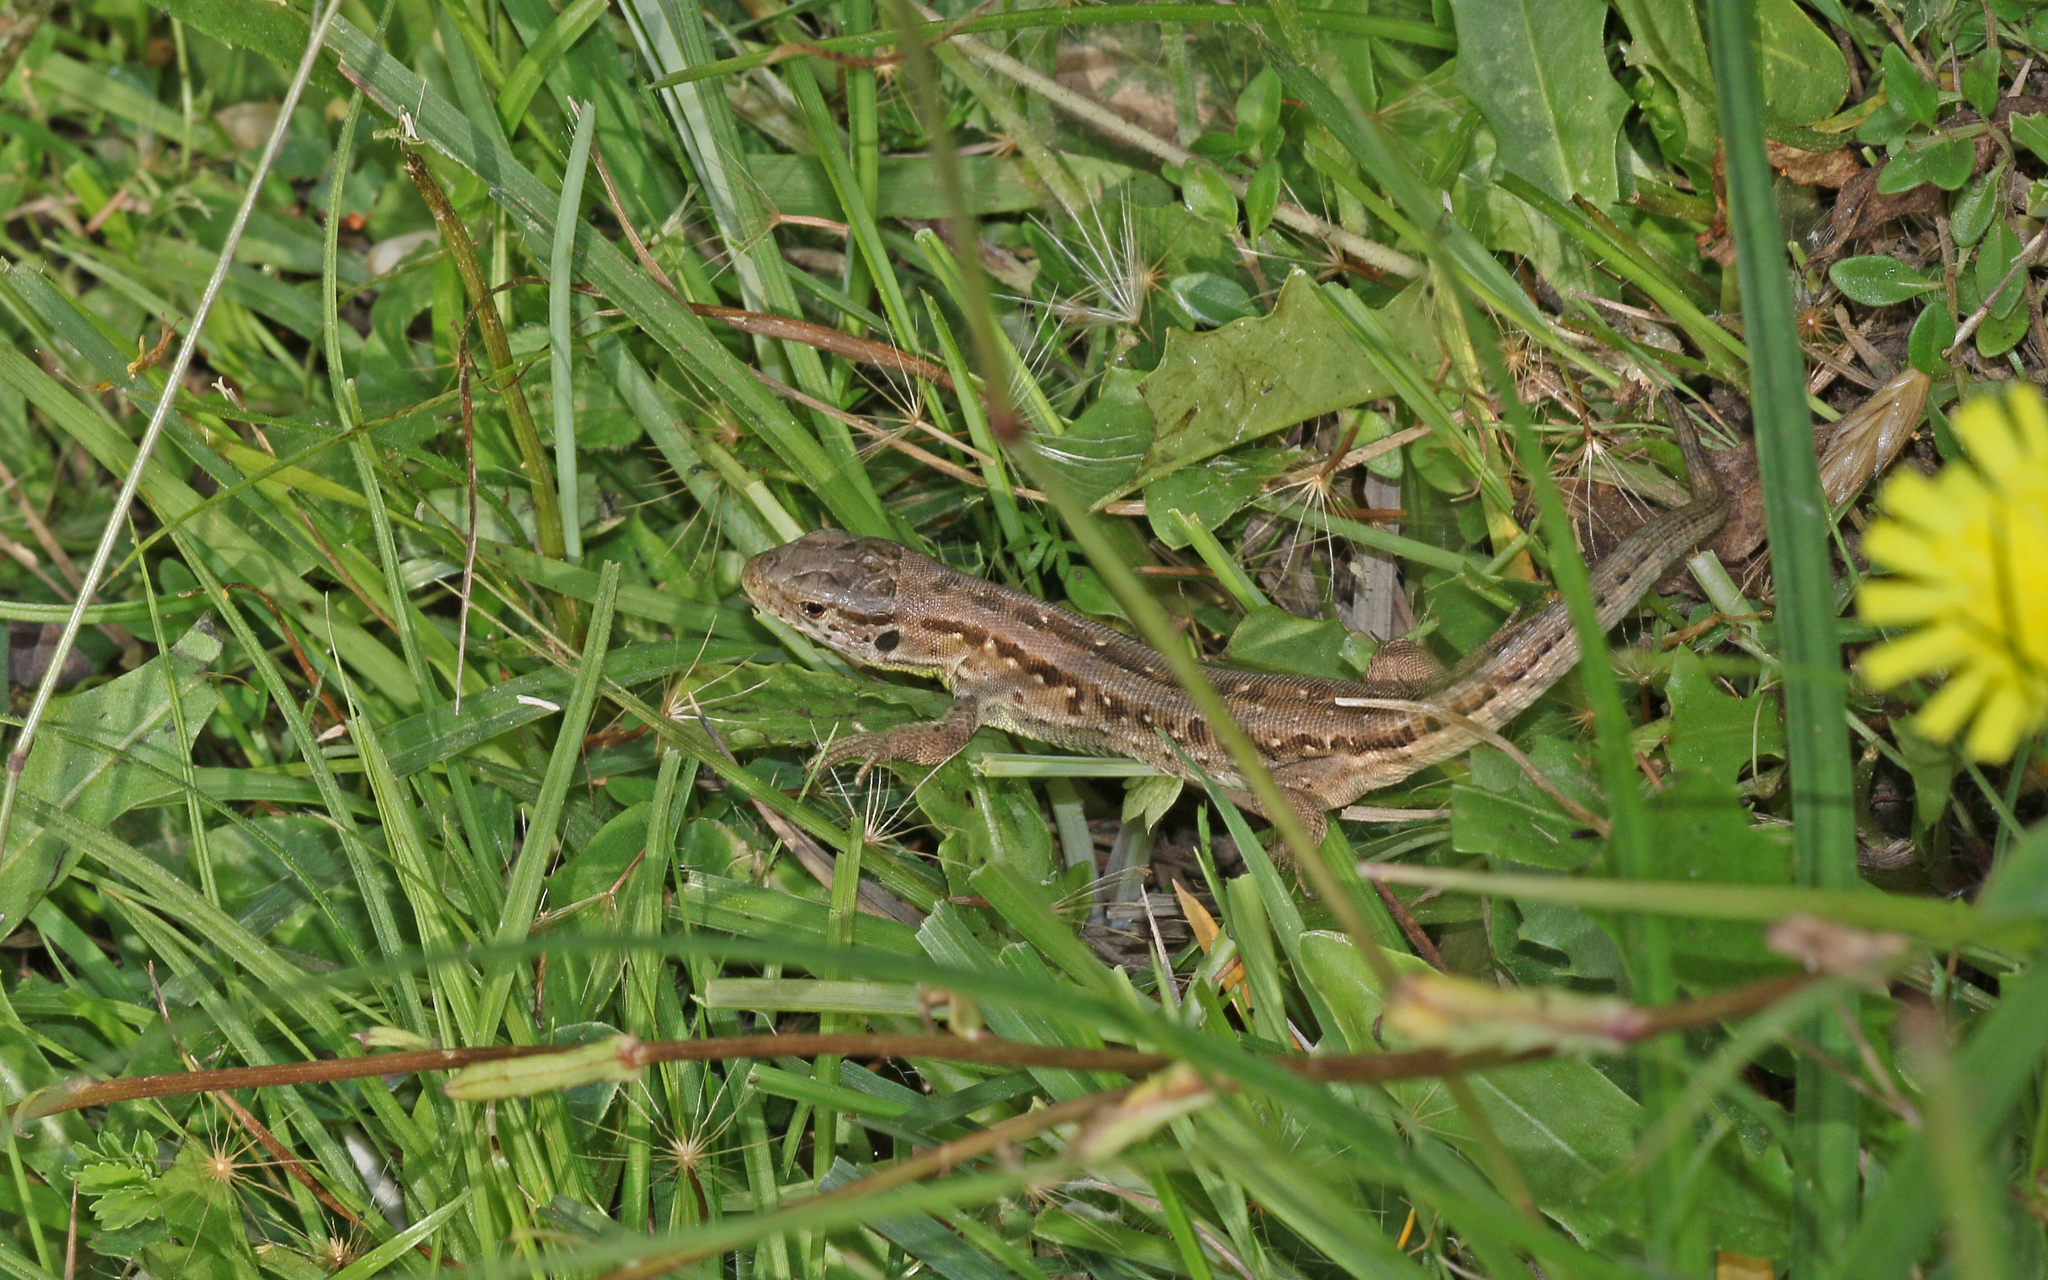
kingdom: Animalia
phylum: Chordata
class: Squamata
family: Lacertidae
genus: Lacerta
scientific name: Lacerta agilis
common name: Sand lizard
